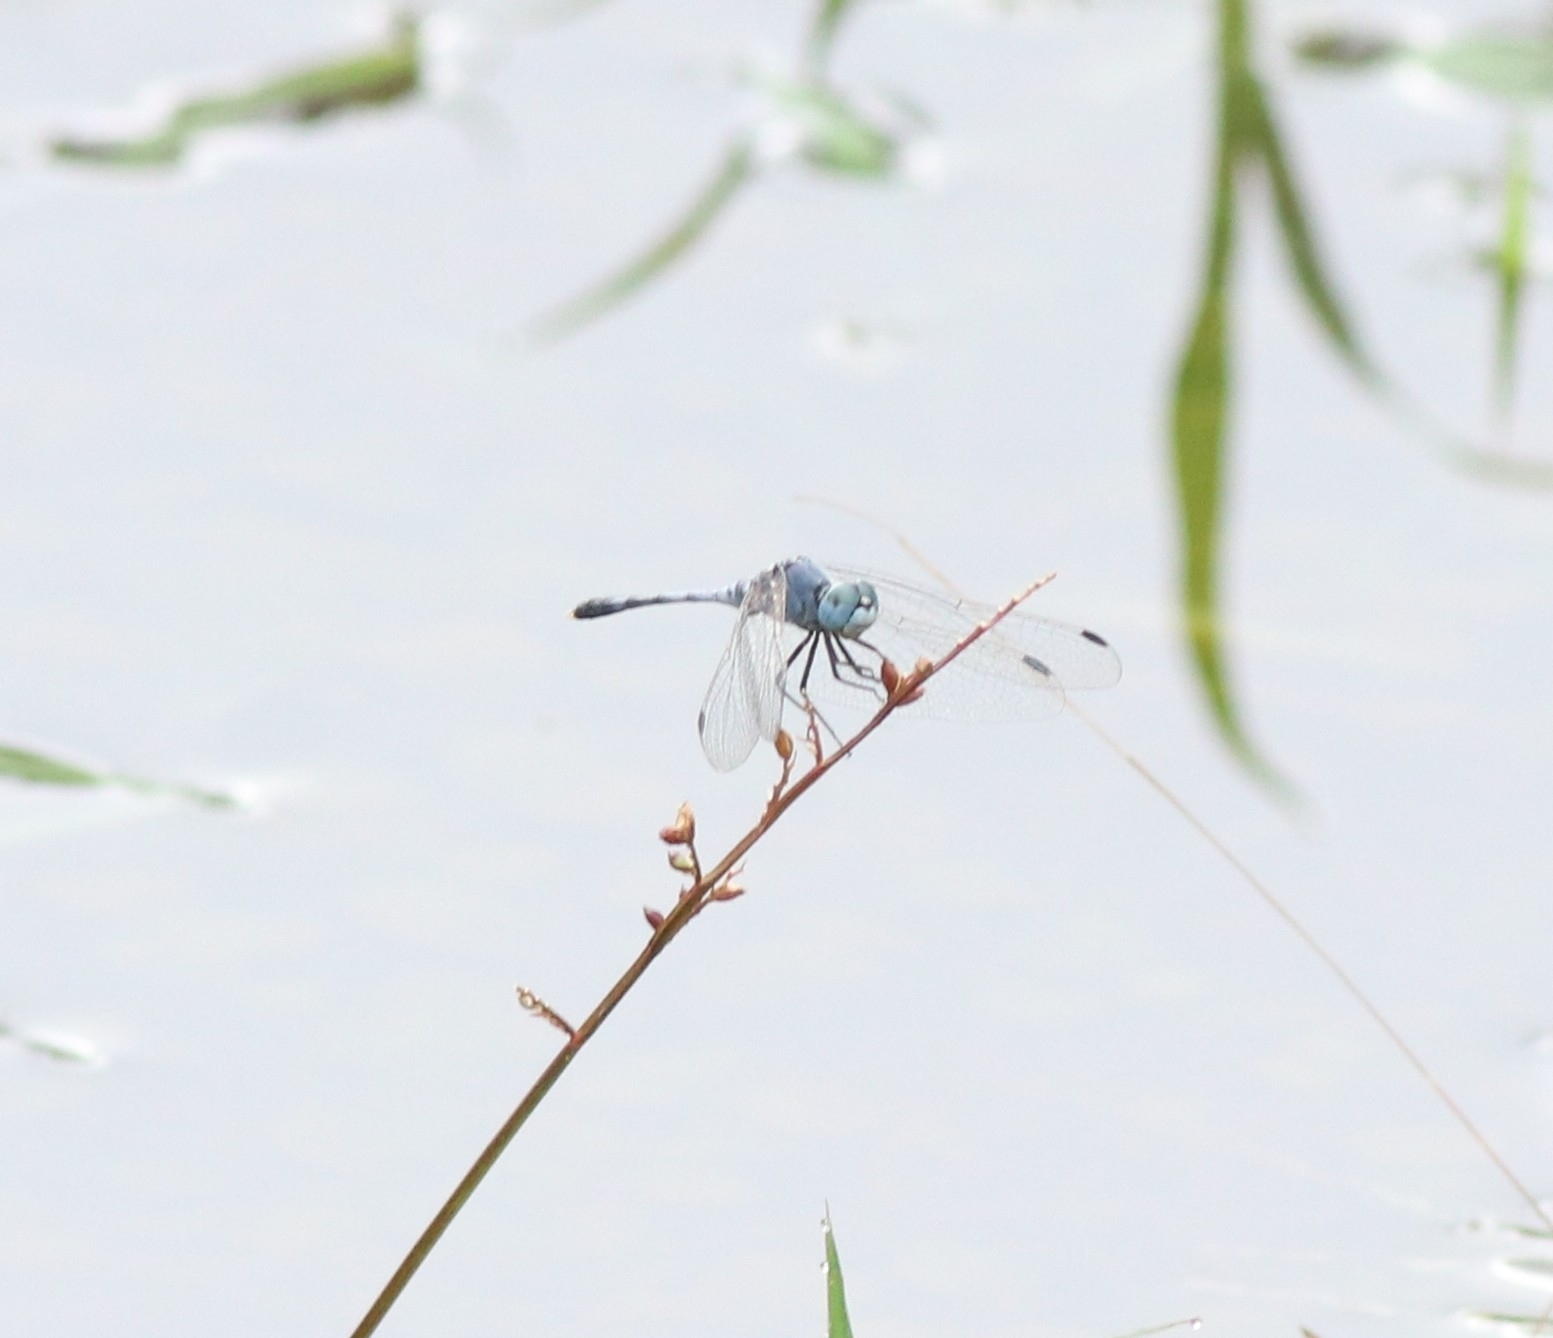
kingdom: Animalia
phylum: Arthropoda
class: Insecta
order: Odonata
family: Libellulidae
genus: Diplacodes
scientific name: Diplacodes trivialis
